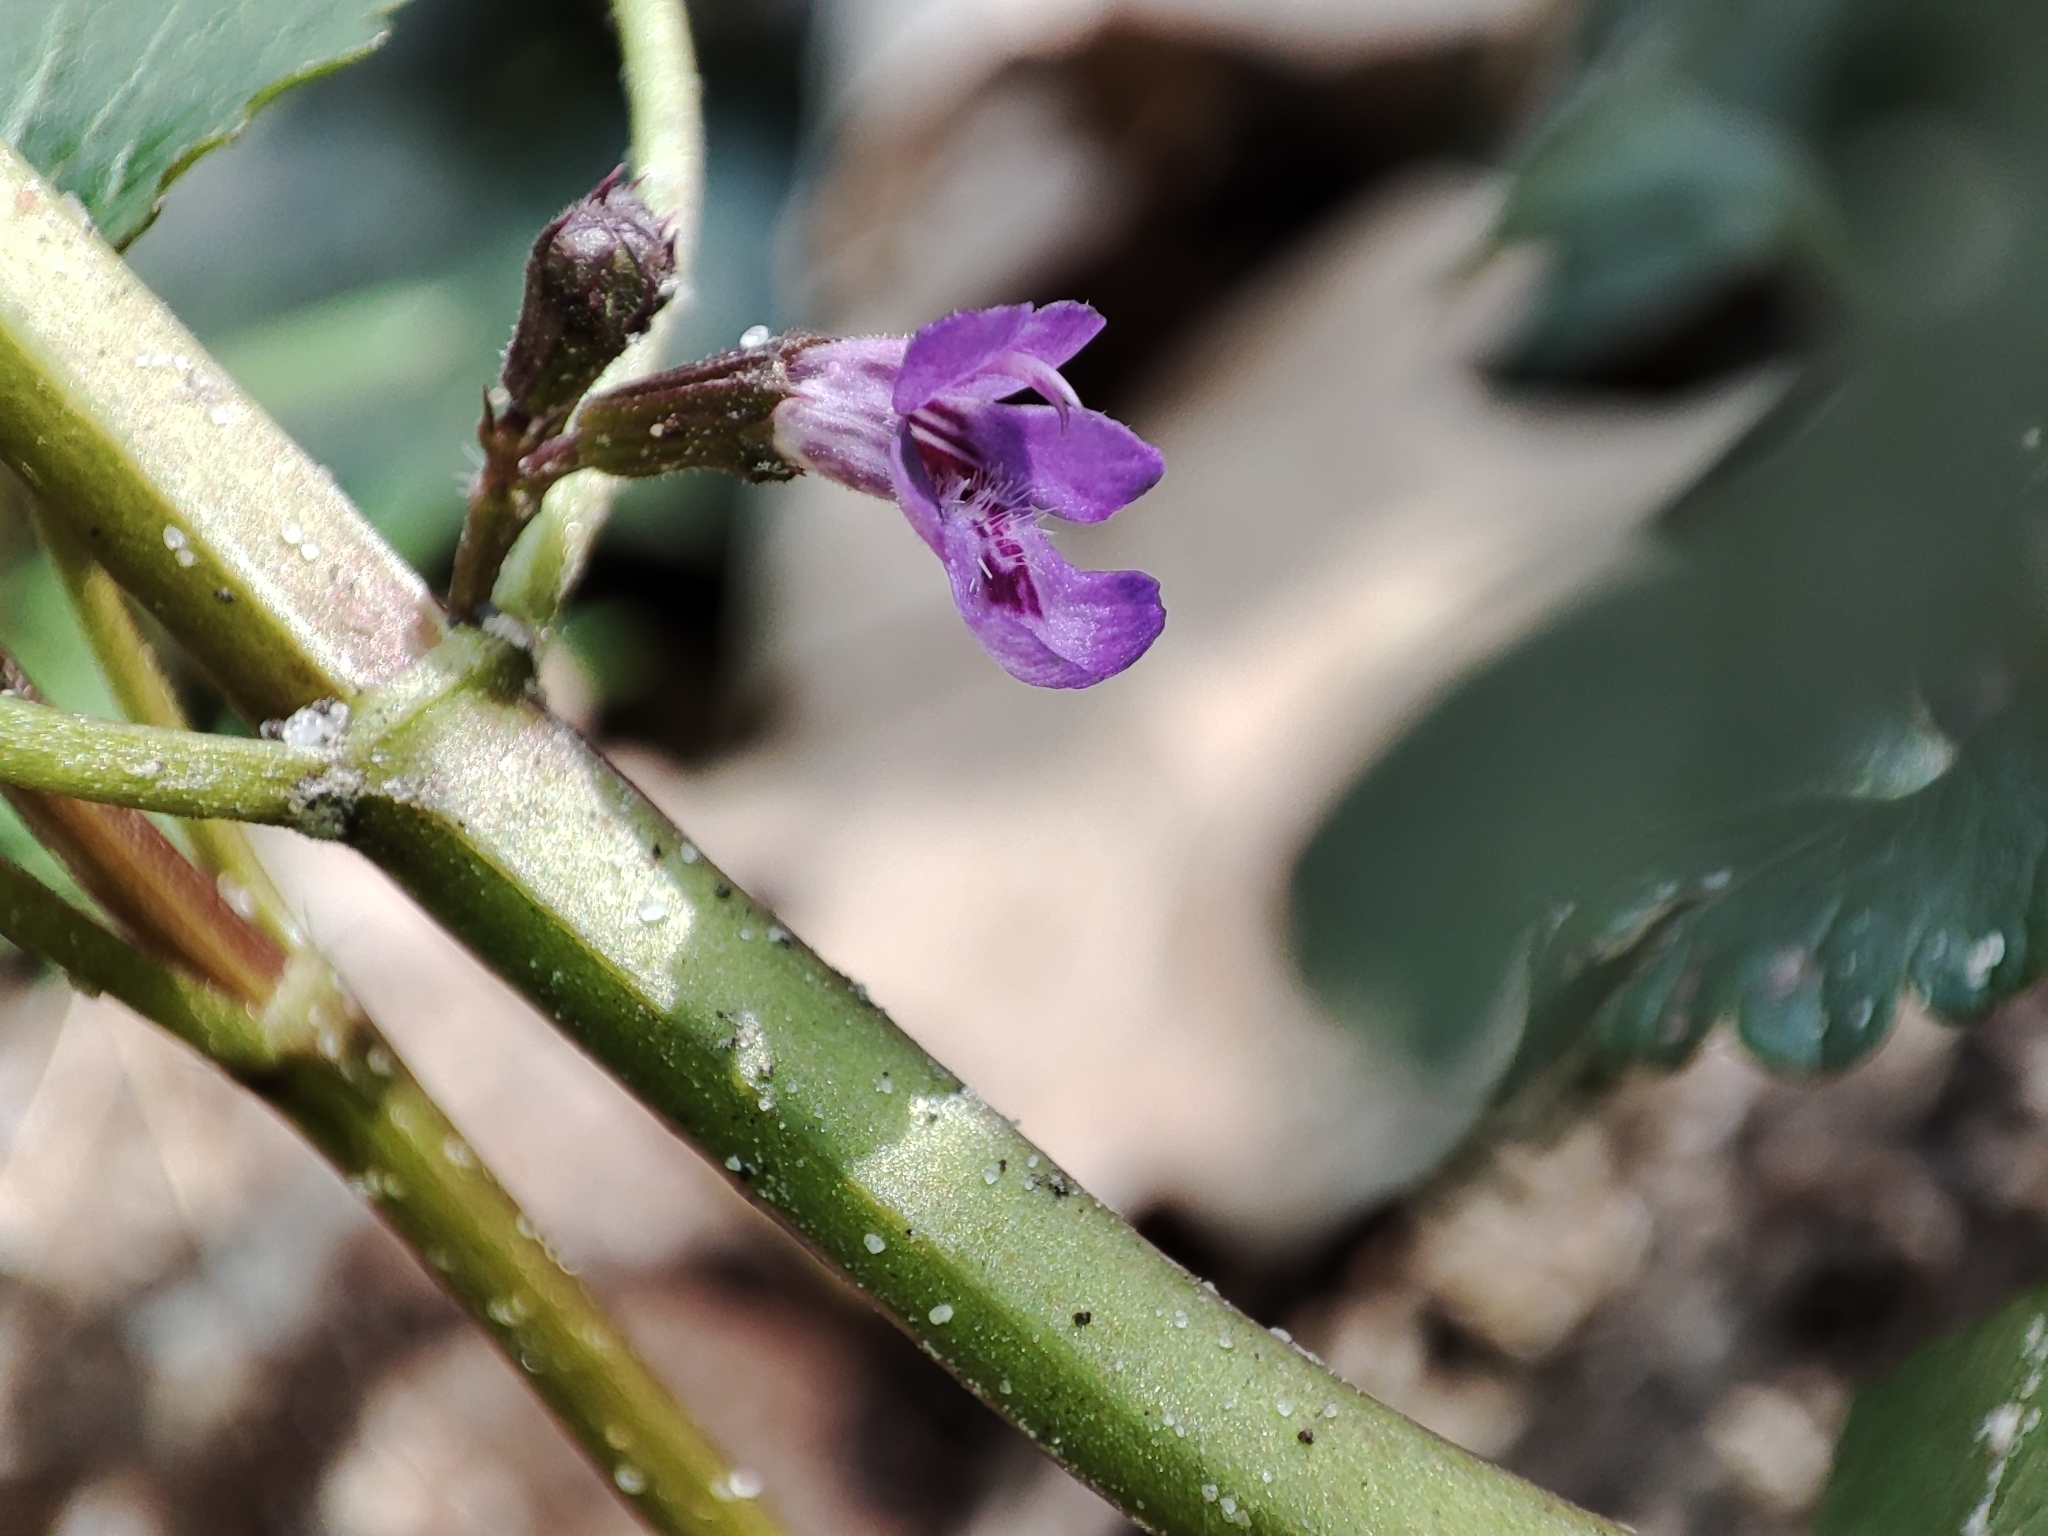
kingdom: Plantae
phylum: Tracheophyta
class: Magnoliopsida
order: Lamiales
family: Lamiaceae
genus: Glechoma
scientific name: Glechoma hederacea
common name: Ground ivy
